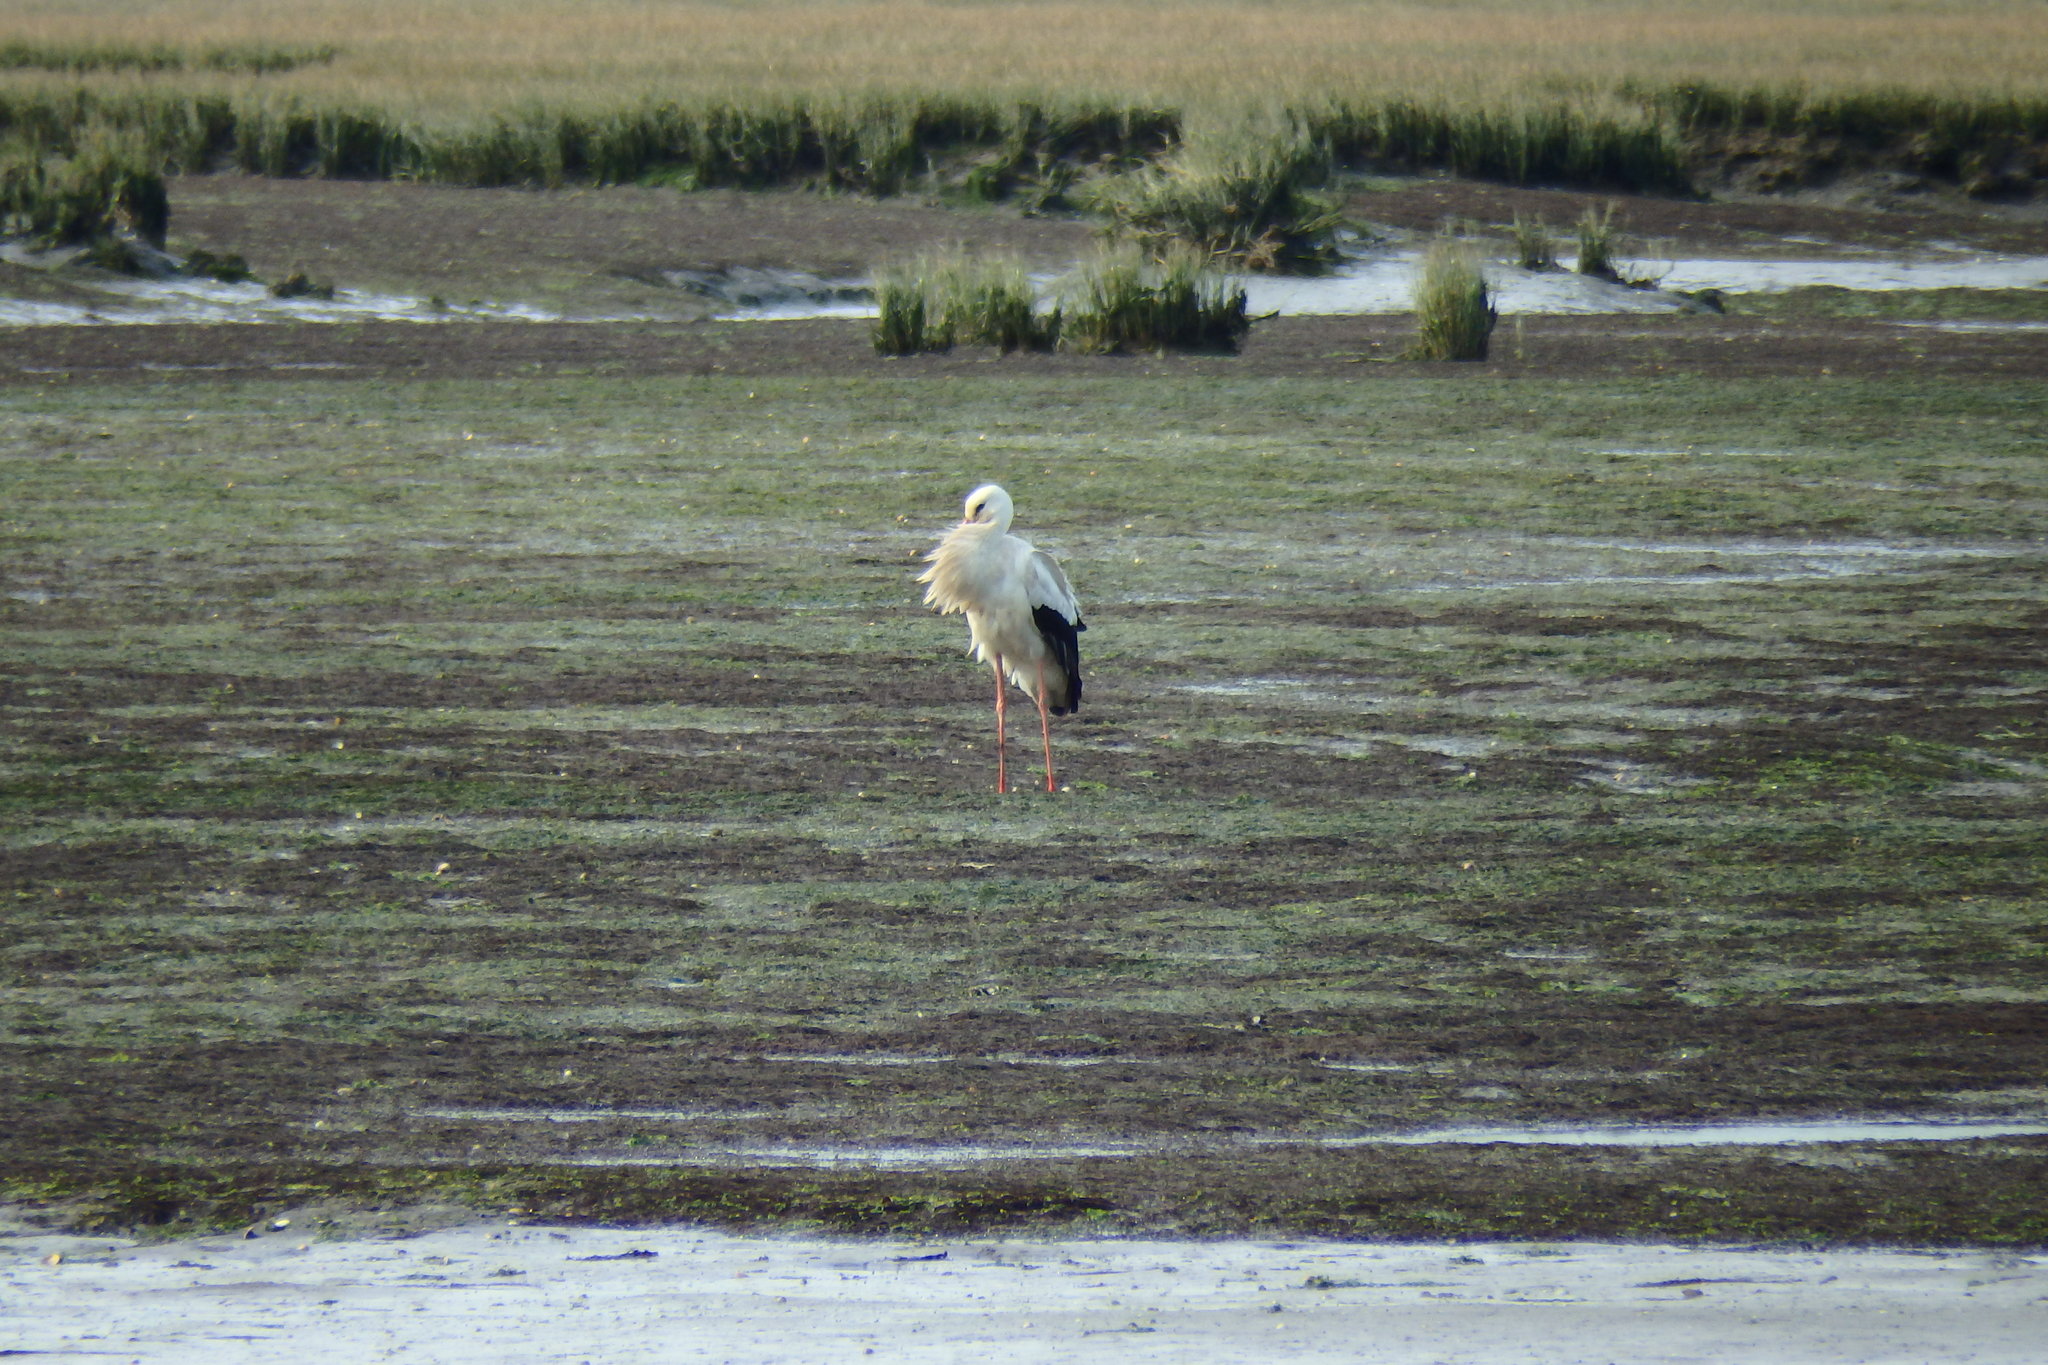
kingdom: Animalia
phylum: Chordata
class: Aves
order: Ciconiiformes
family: Ciconiidae
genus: Ciconia
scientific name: Ciconia ciconia
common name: White stork
